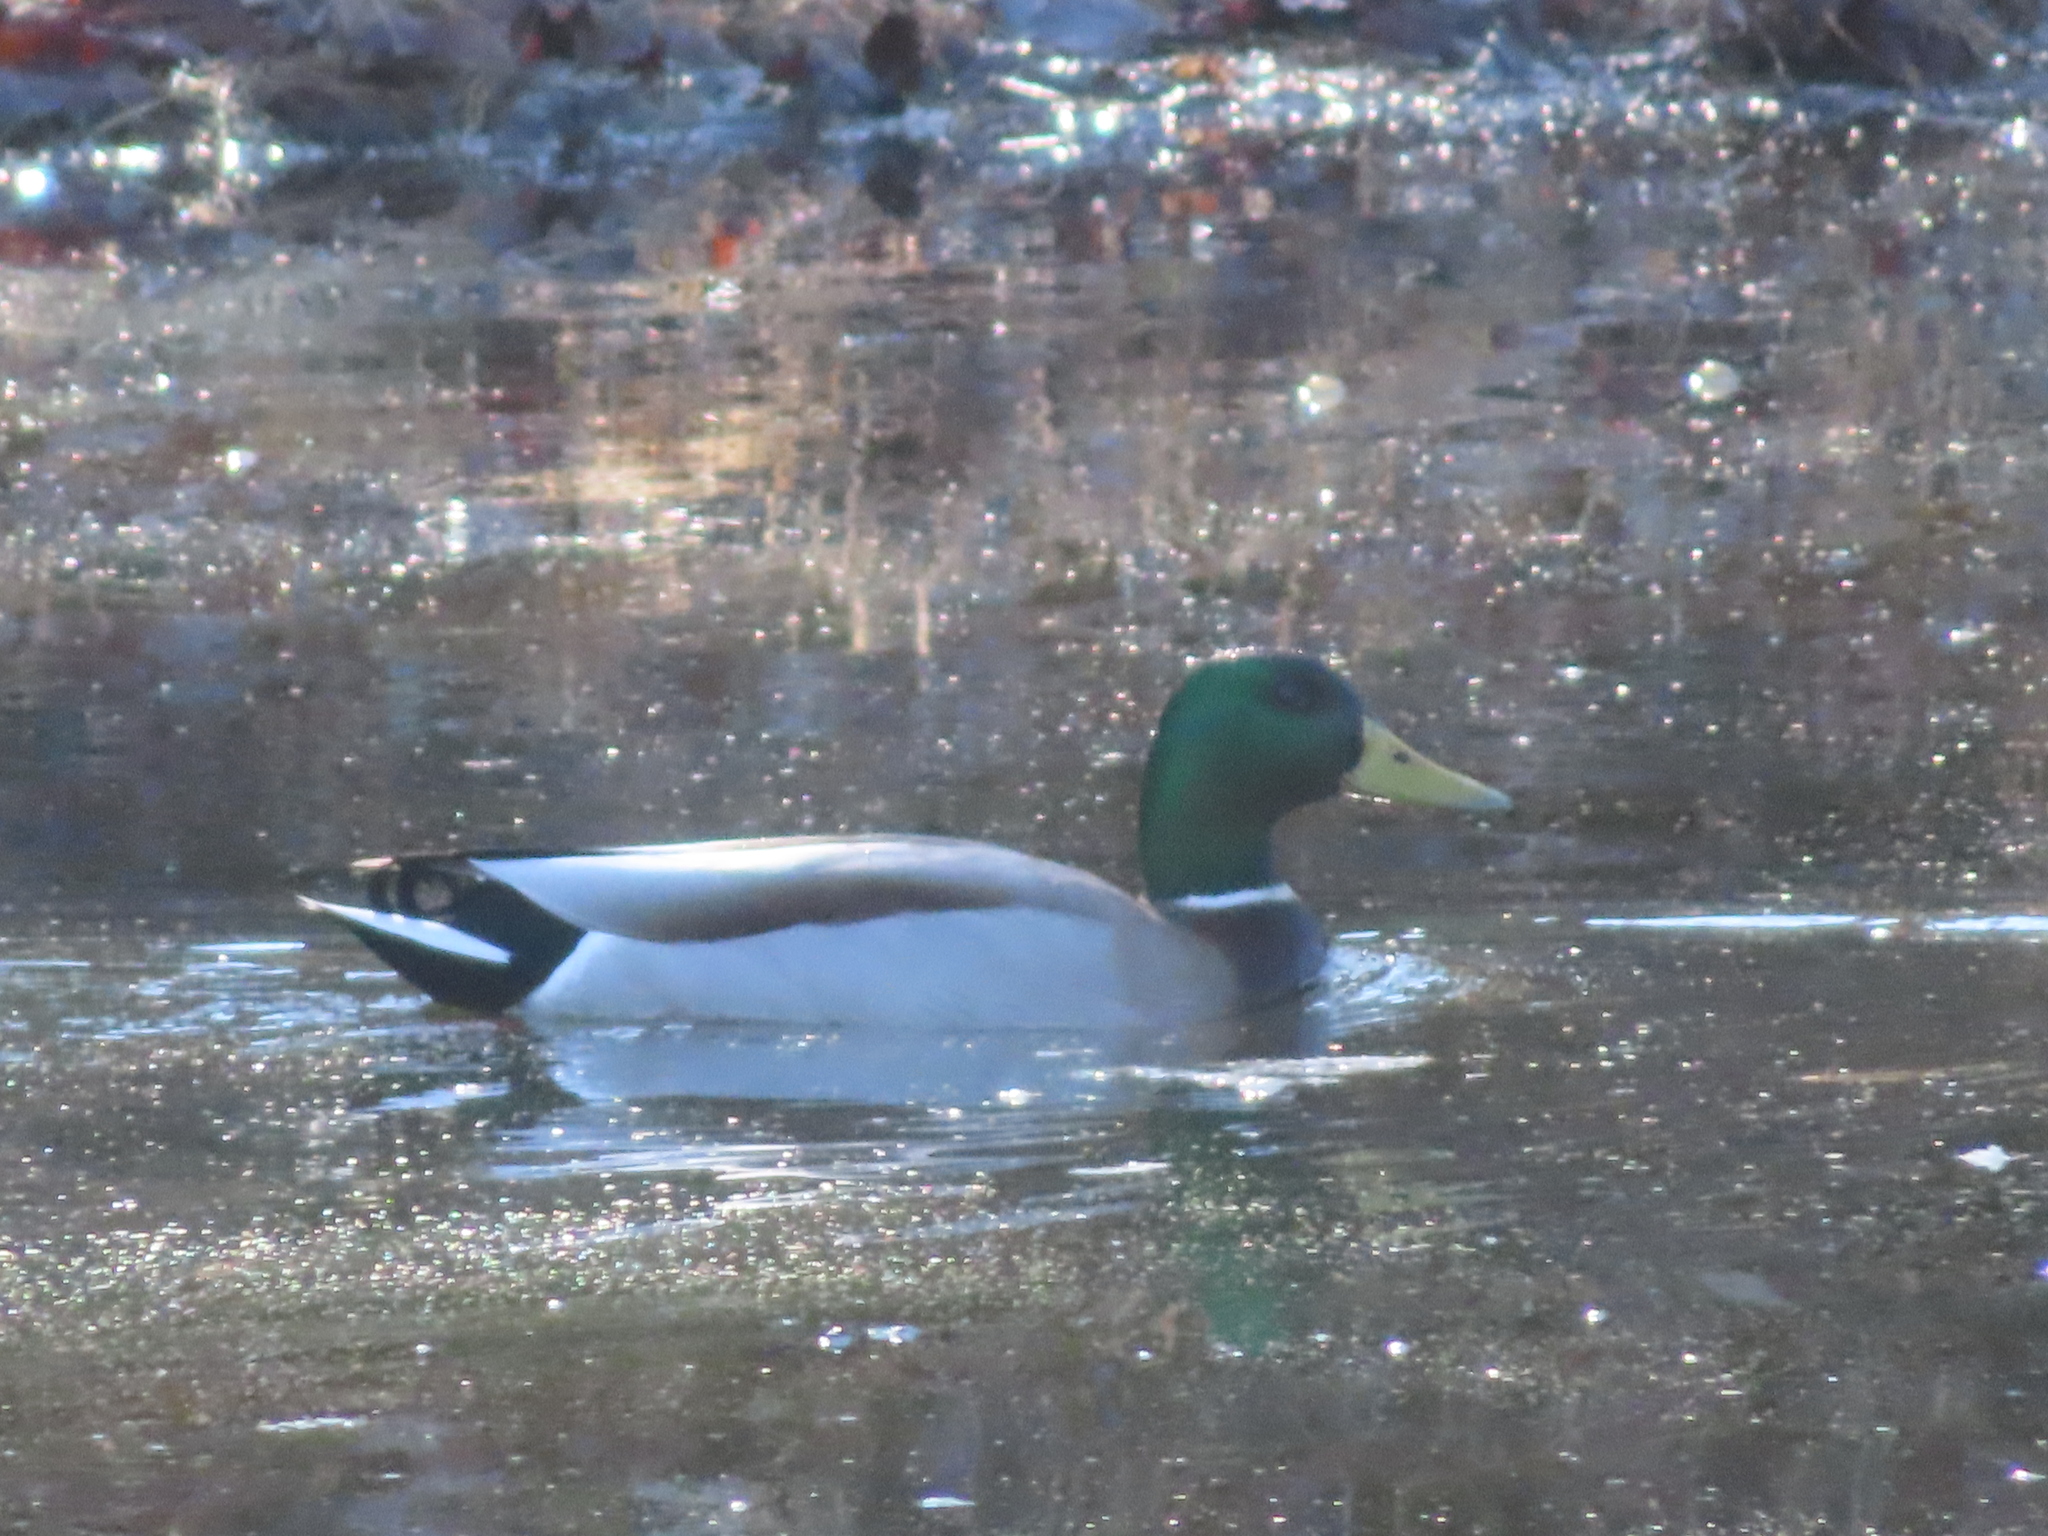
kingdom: Animalia
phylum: Chordata
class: Aves
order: Anseriformes
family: Anatidae
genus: Anas
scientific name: Anas platyrhynchos
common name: Mallard
